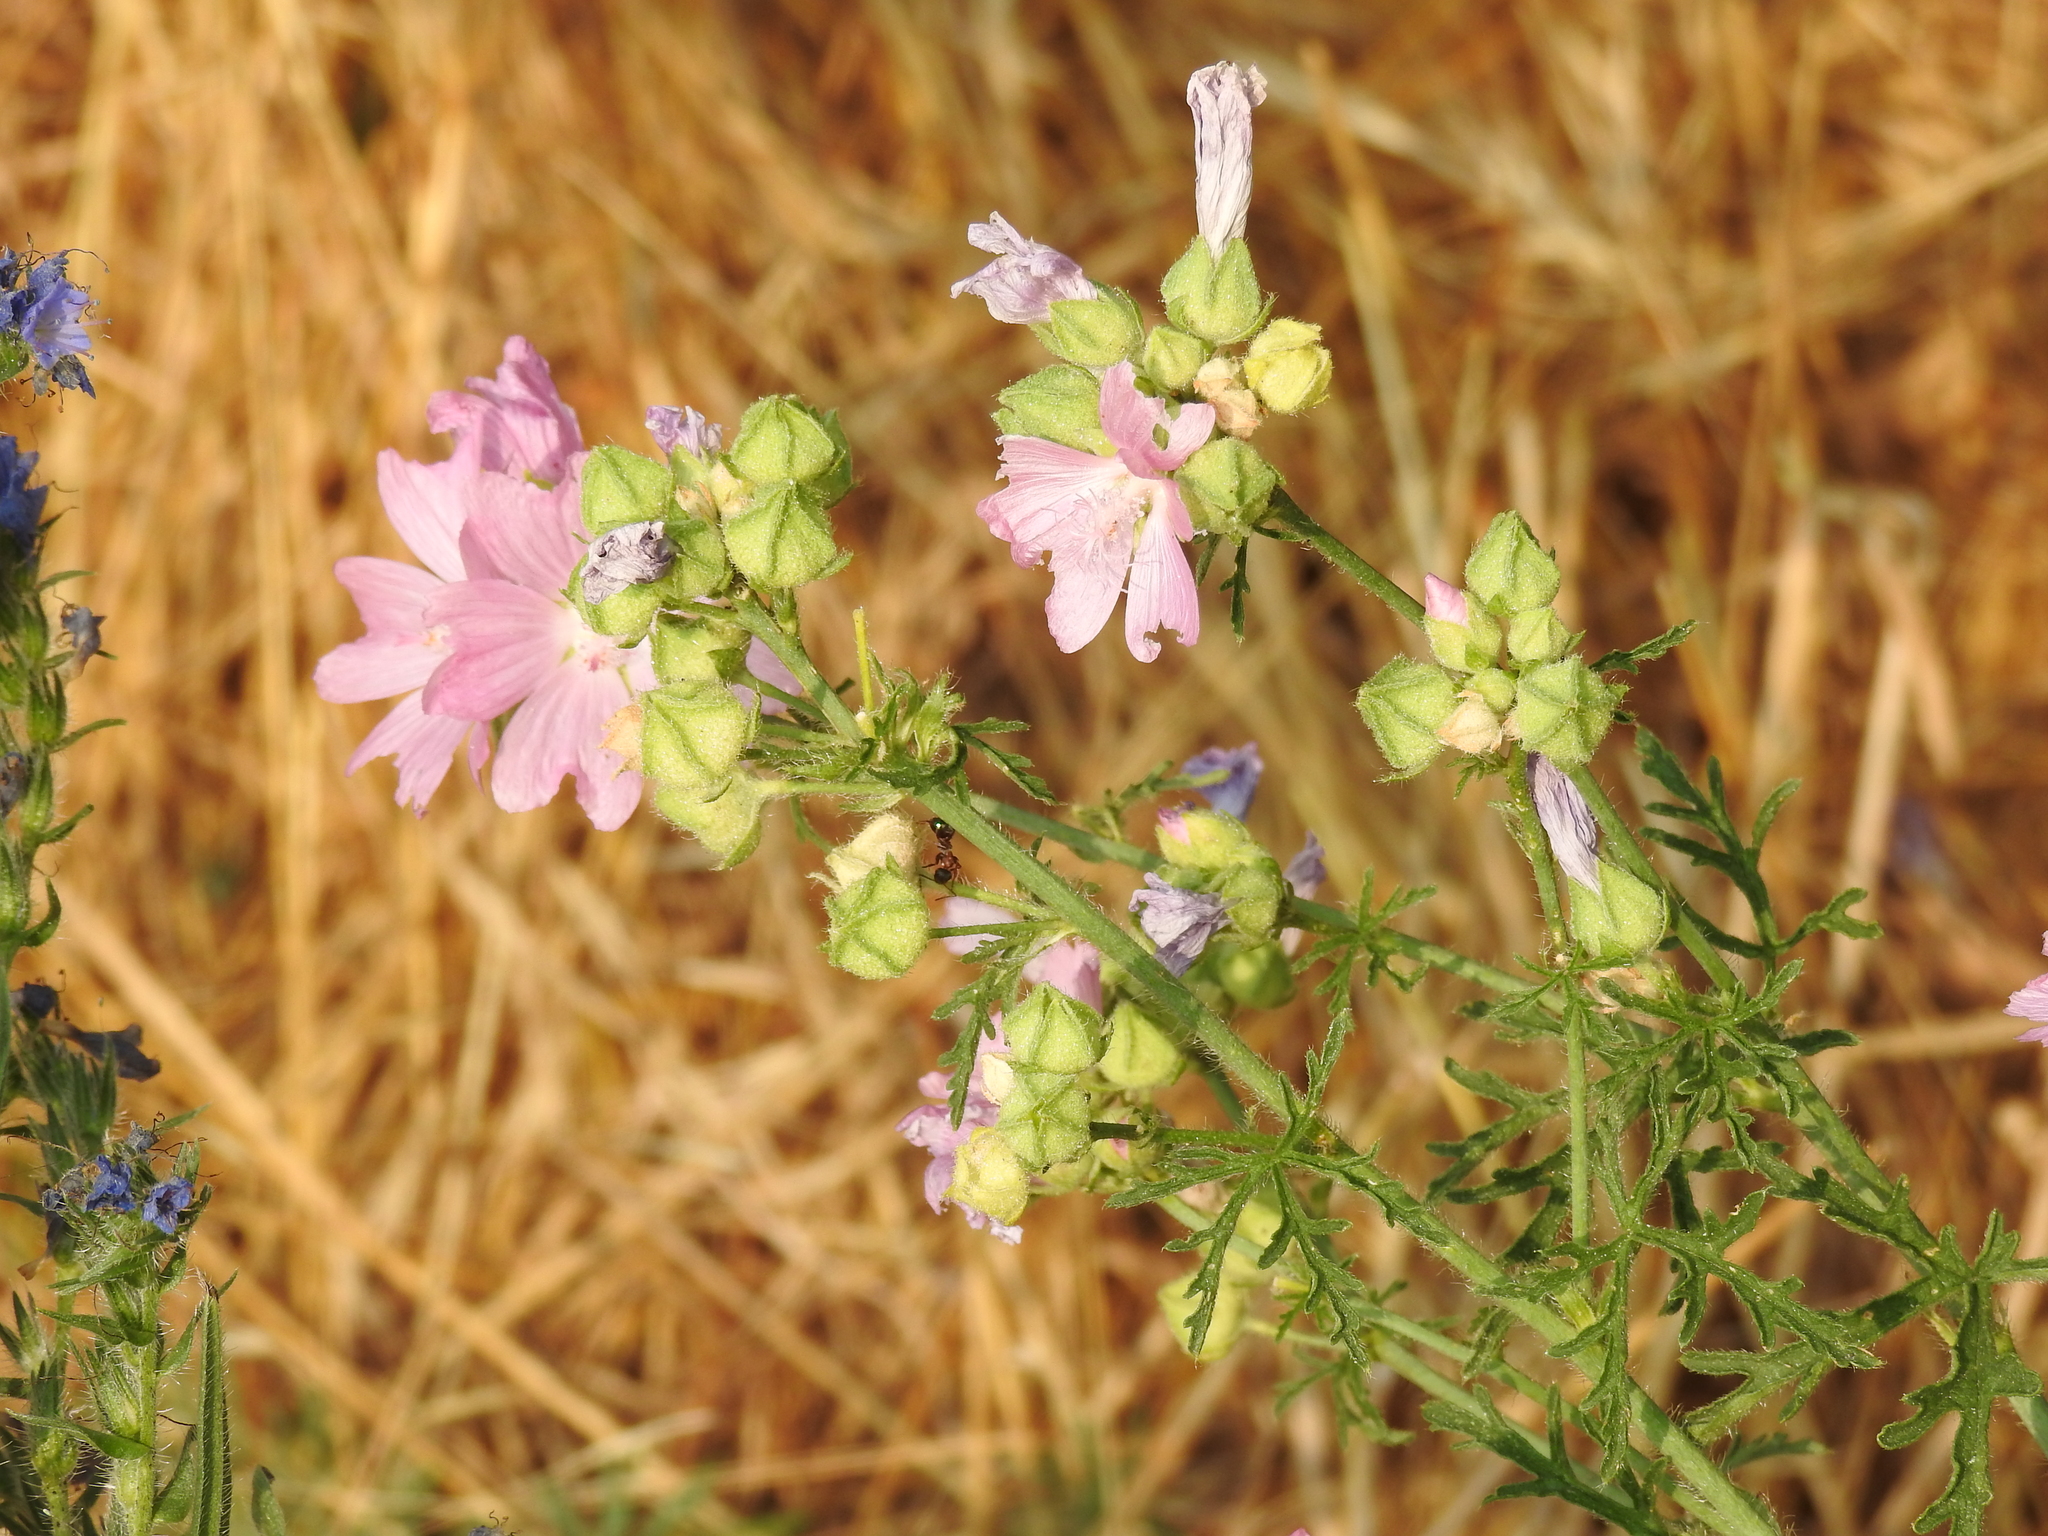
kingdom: Plantae
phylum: Tracheophyta
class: Magnoliopsida
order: Malvales
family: Malvaceae
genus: Malva
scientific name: Malva alcea
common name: Greater musk-mallow
